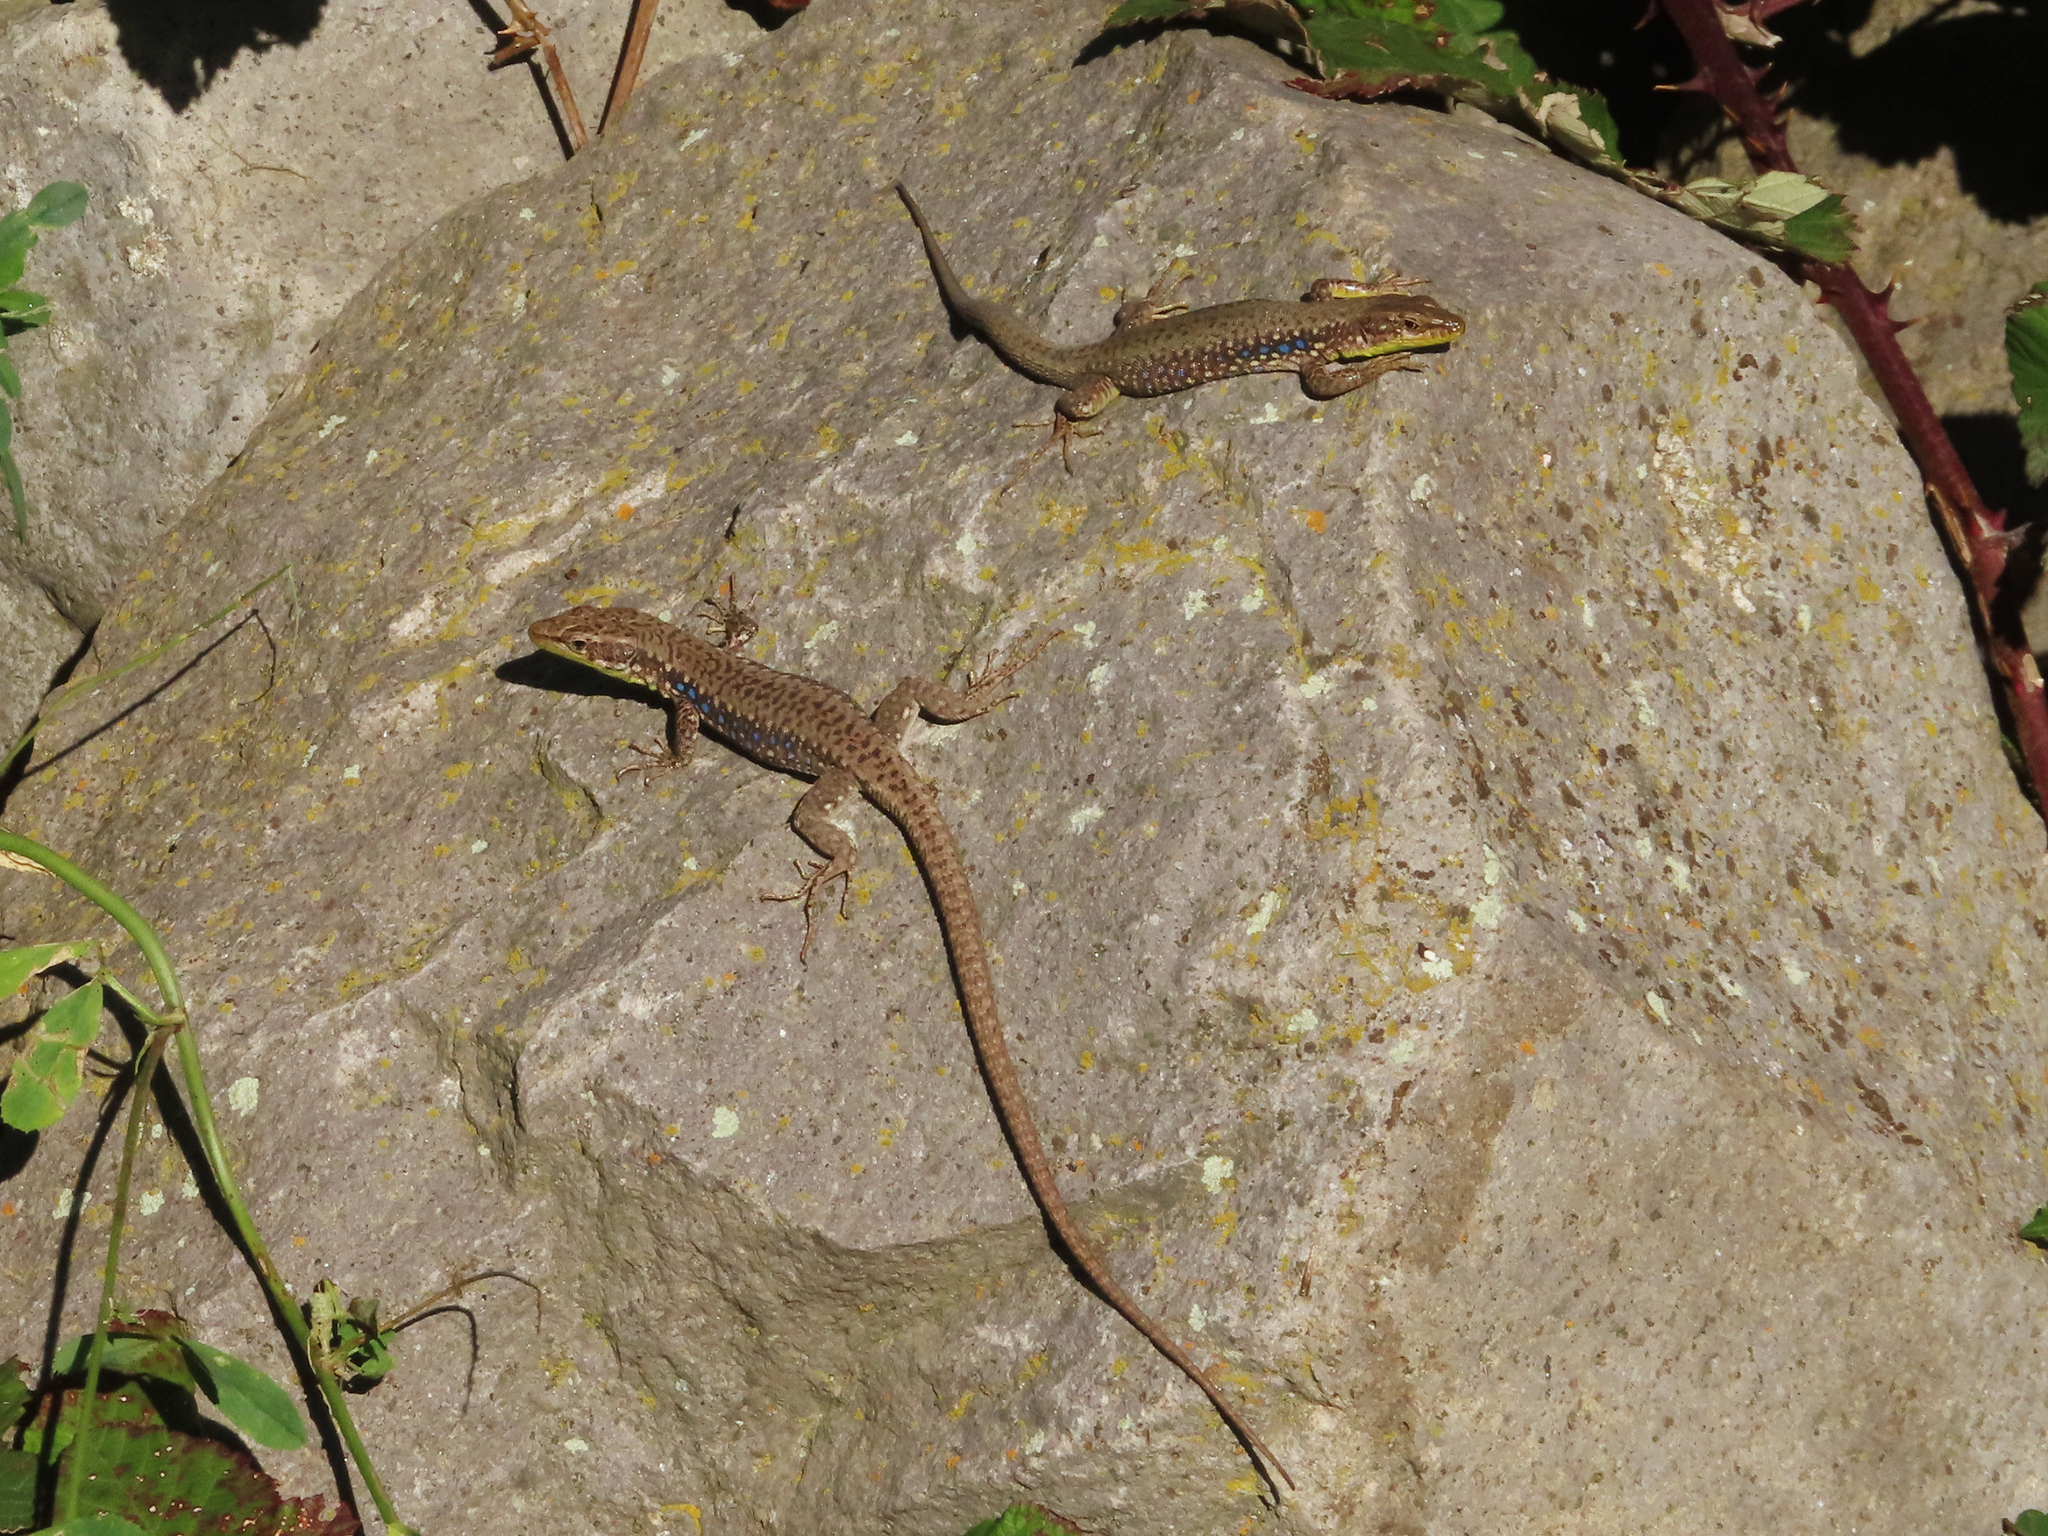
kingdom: Animalia
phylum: Chordata
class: Squamata
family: Lacertidae
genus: Darevskia
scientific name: Darevskia raddei
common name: Radde's lizard
